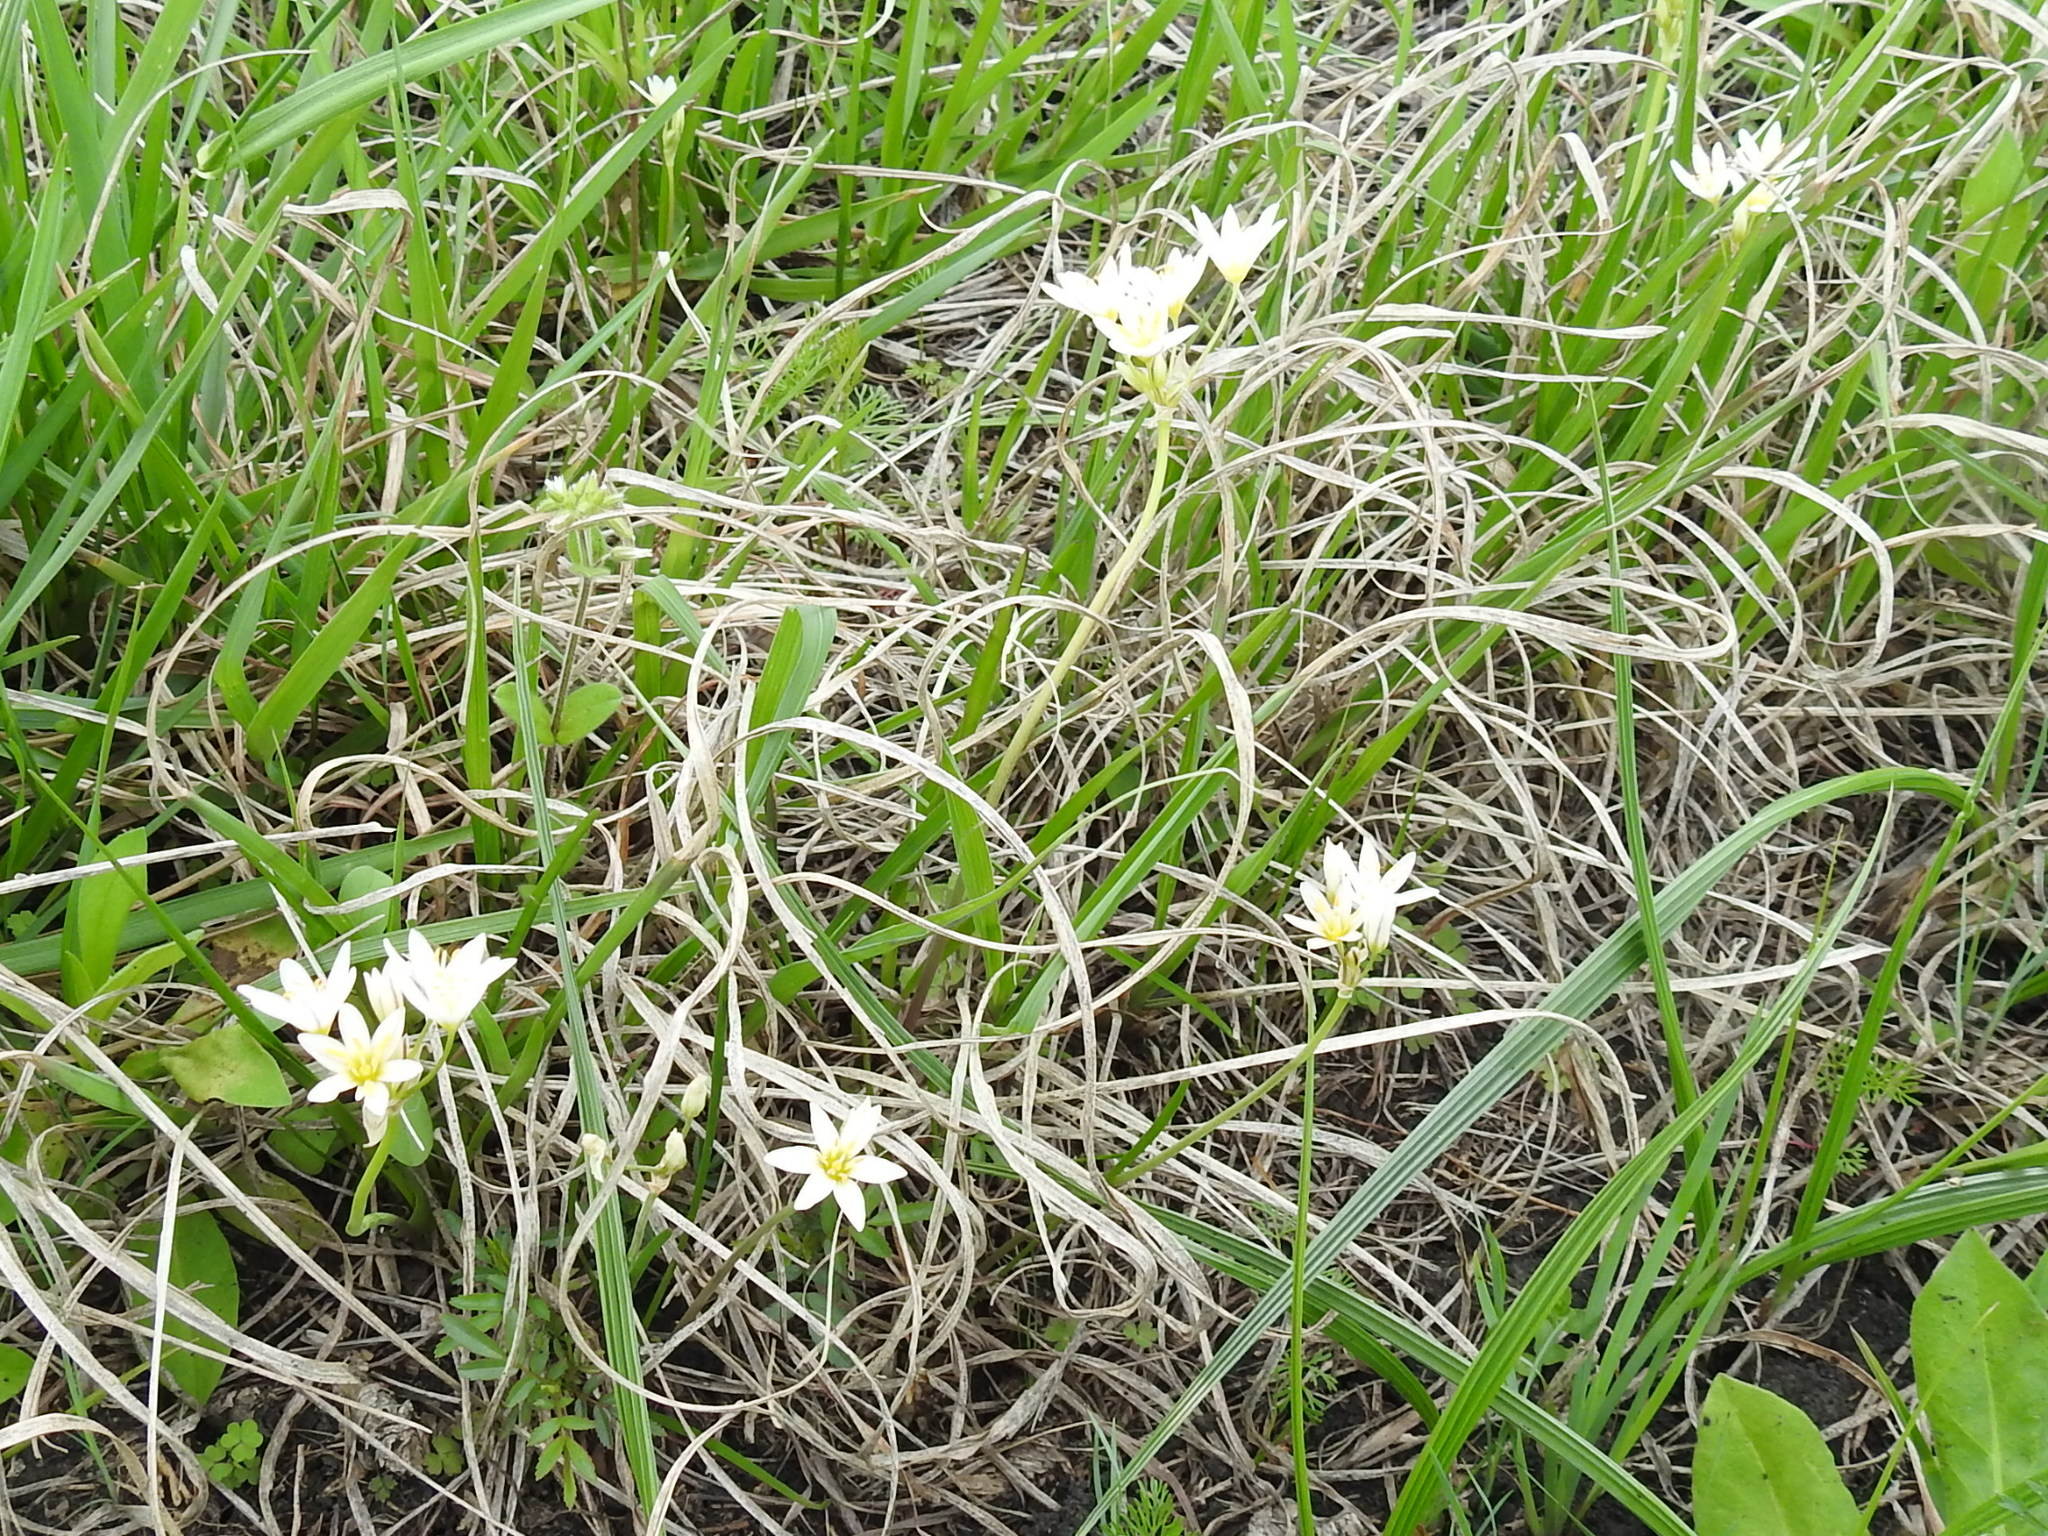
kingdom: Plantae
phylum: Tracheophyta
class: Liliopsida
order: Asparagales
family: Amaryllidaceae
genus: Nothoscordum
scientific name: Nothoscordum bivalve
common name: Crow-poison
